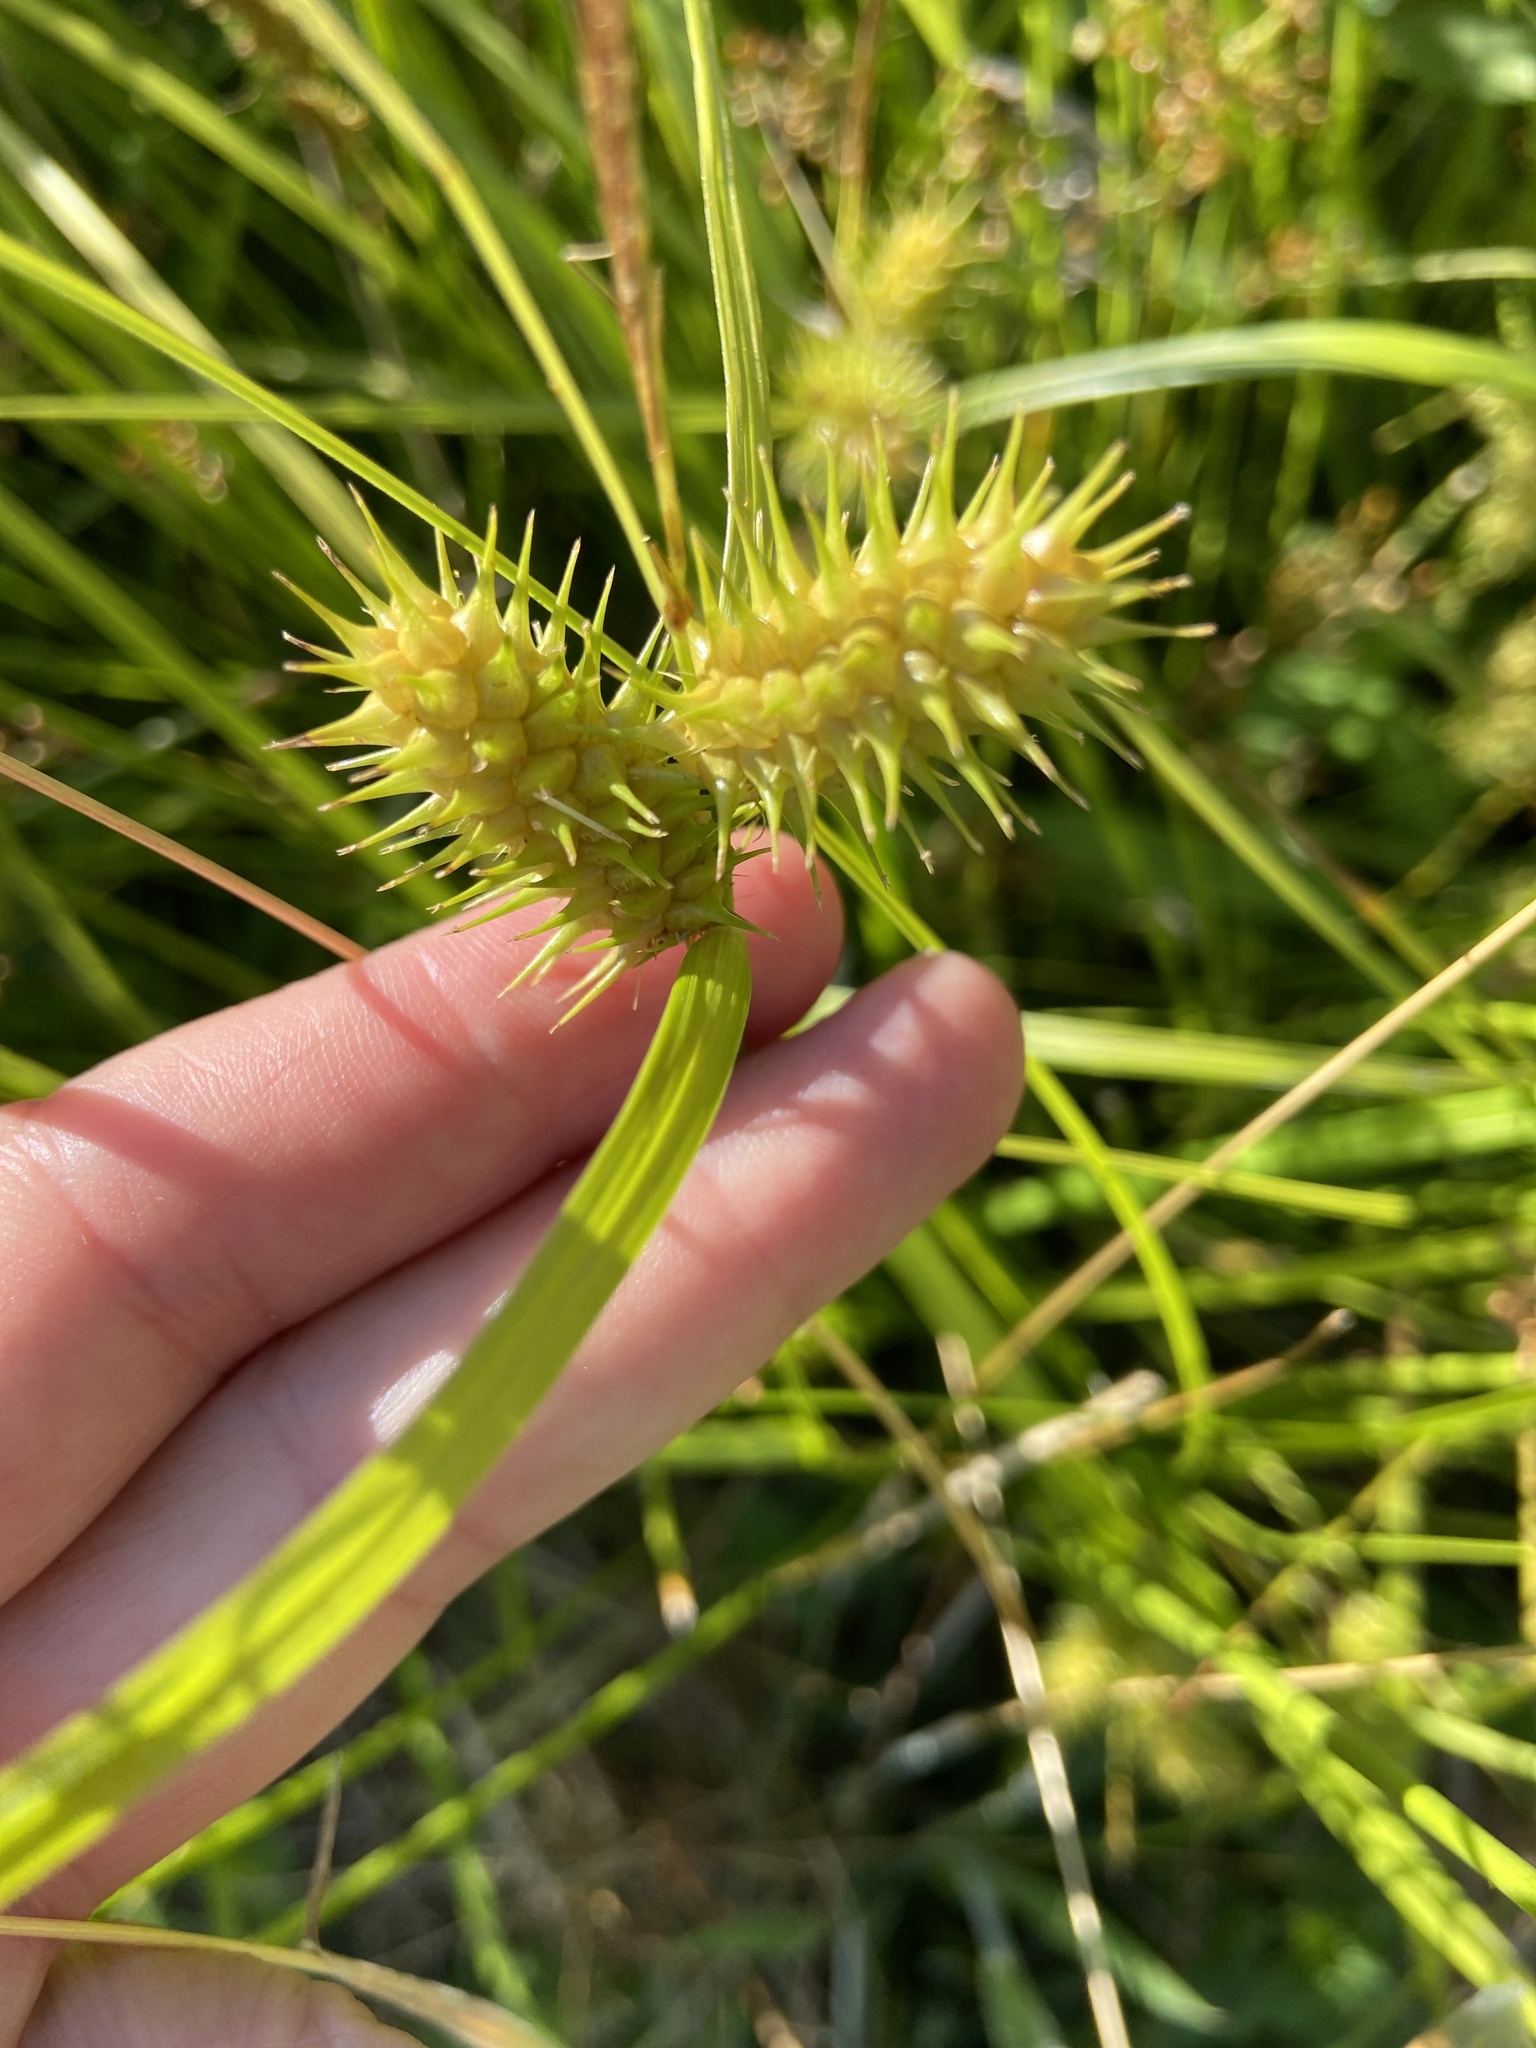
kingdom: Plantae
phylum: Tracheophyta
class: Liliopsida
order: Poales
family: Cyperaceae
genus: Carex
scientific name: Carex lurida
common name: Sallow sedge
